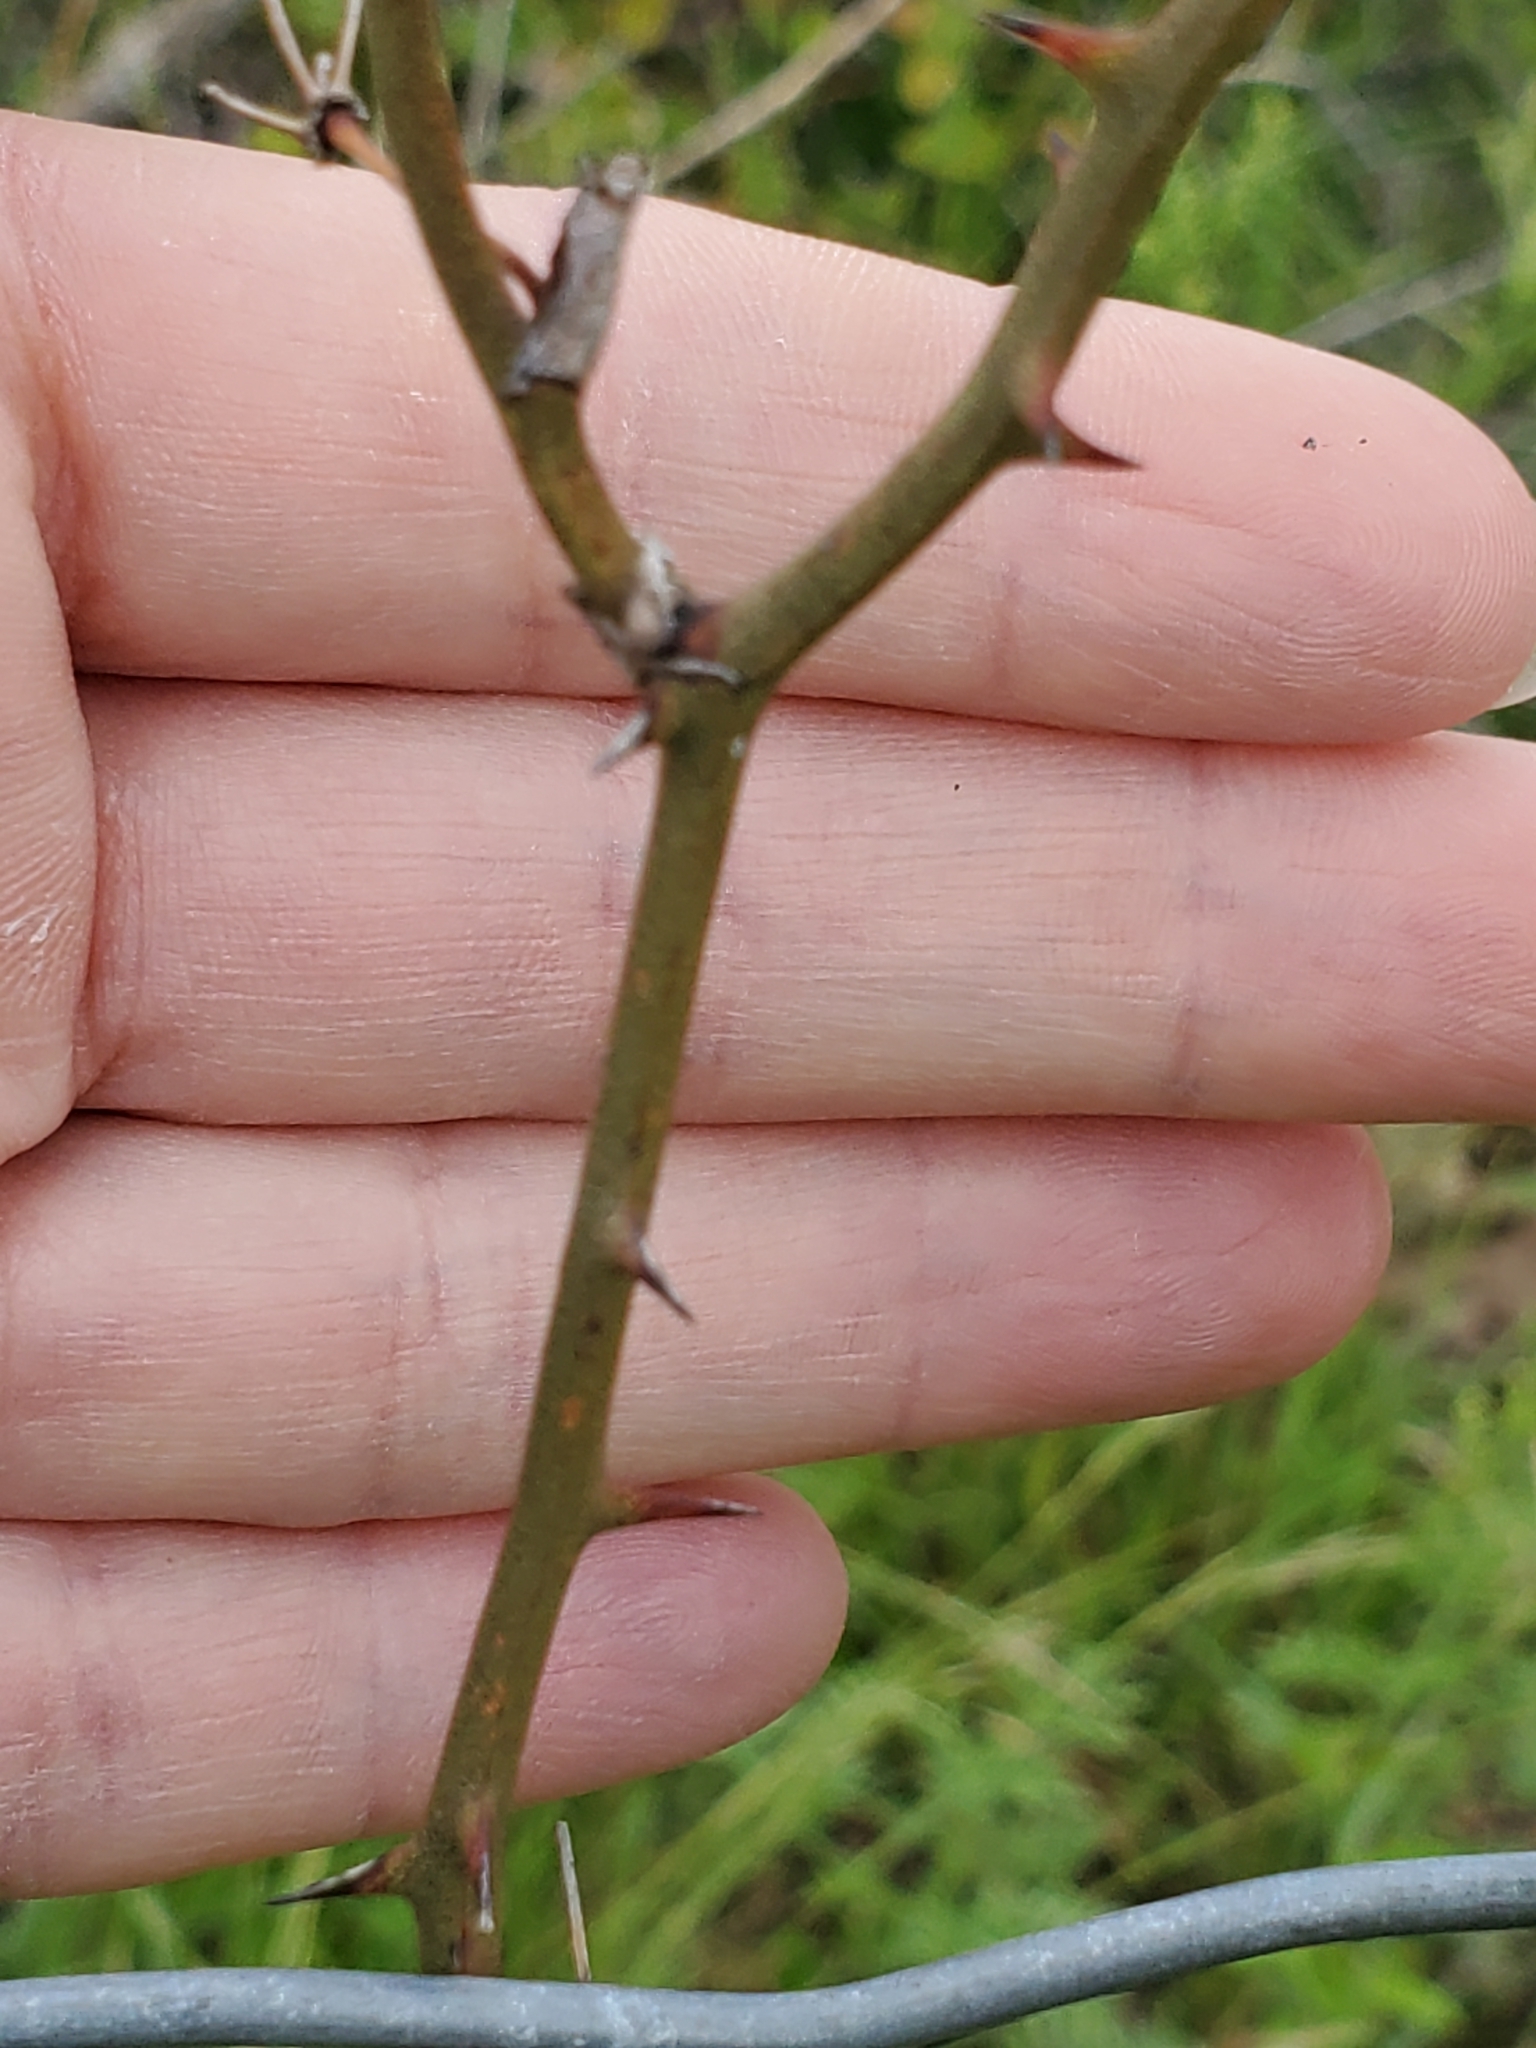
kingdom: Plantae
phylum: Tracheophyta
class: Liliopsida
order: Liliales
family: Smilacaceae
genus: Smilax
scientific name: Smilax bona-nox
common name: Catbrier
